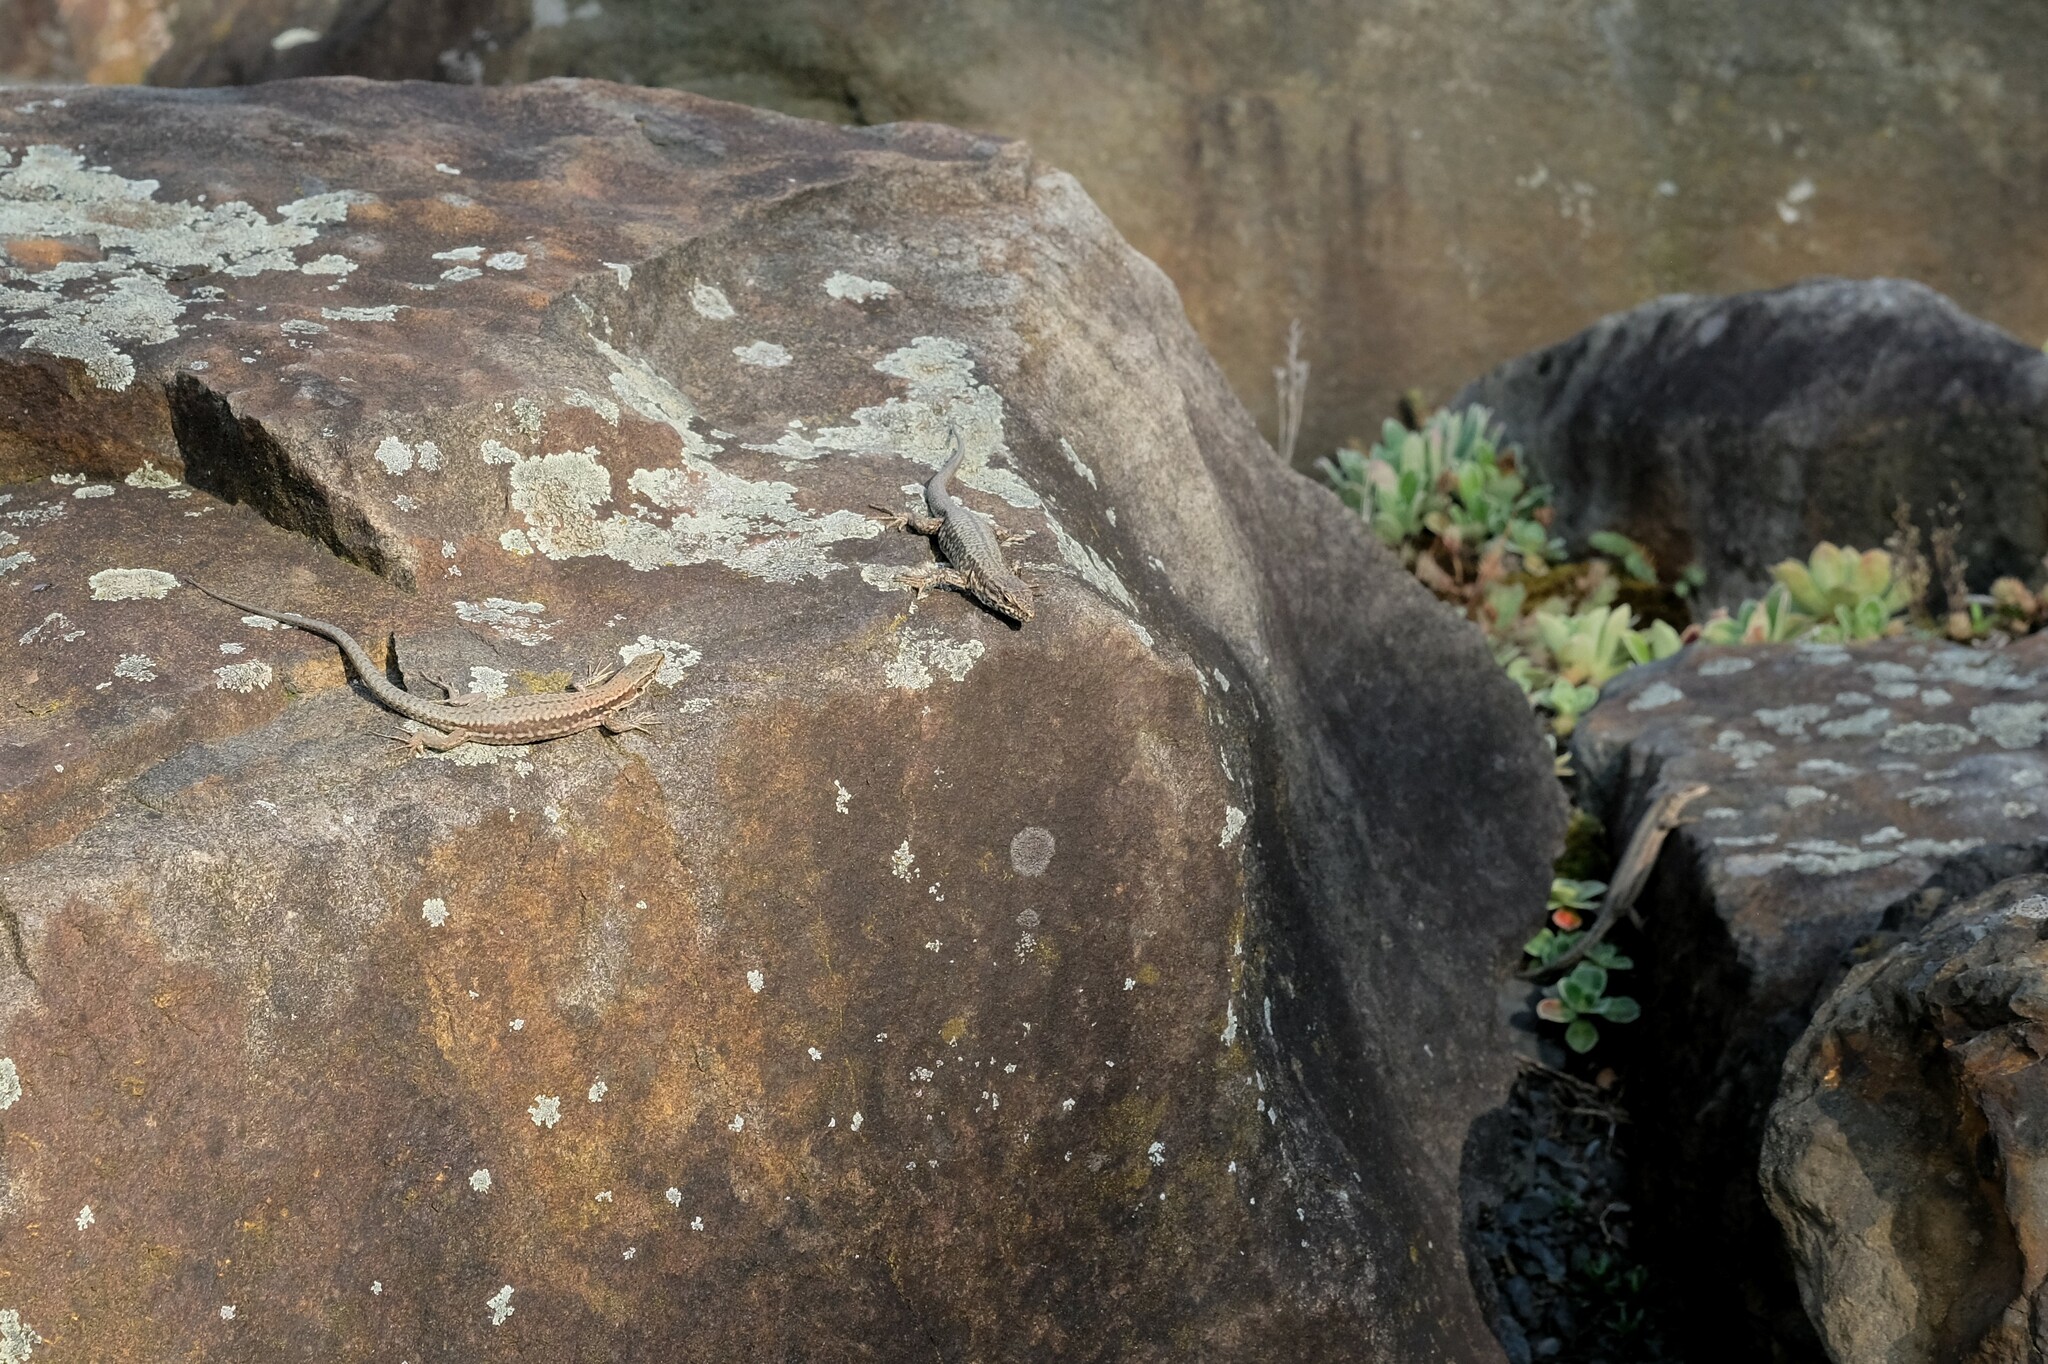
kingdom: Animalia
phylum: Chordata
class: Squamata
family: Lacertidae
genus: Podarcis
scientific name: Podarcis muralis
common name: Common wall lizard
